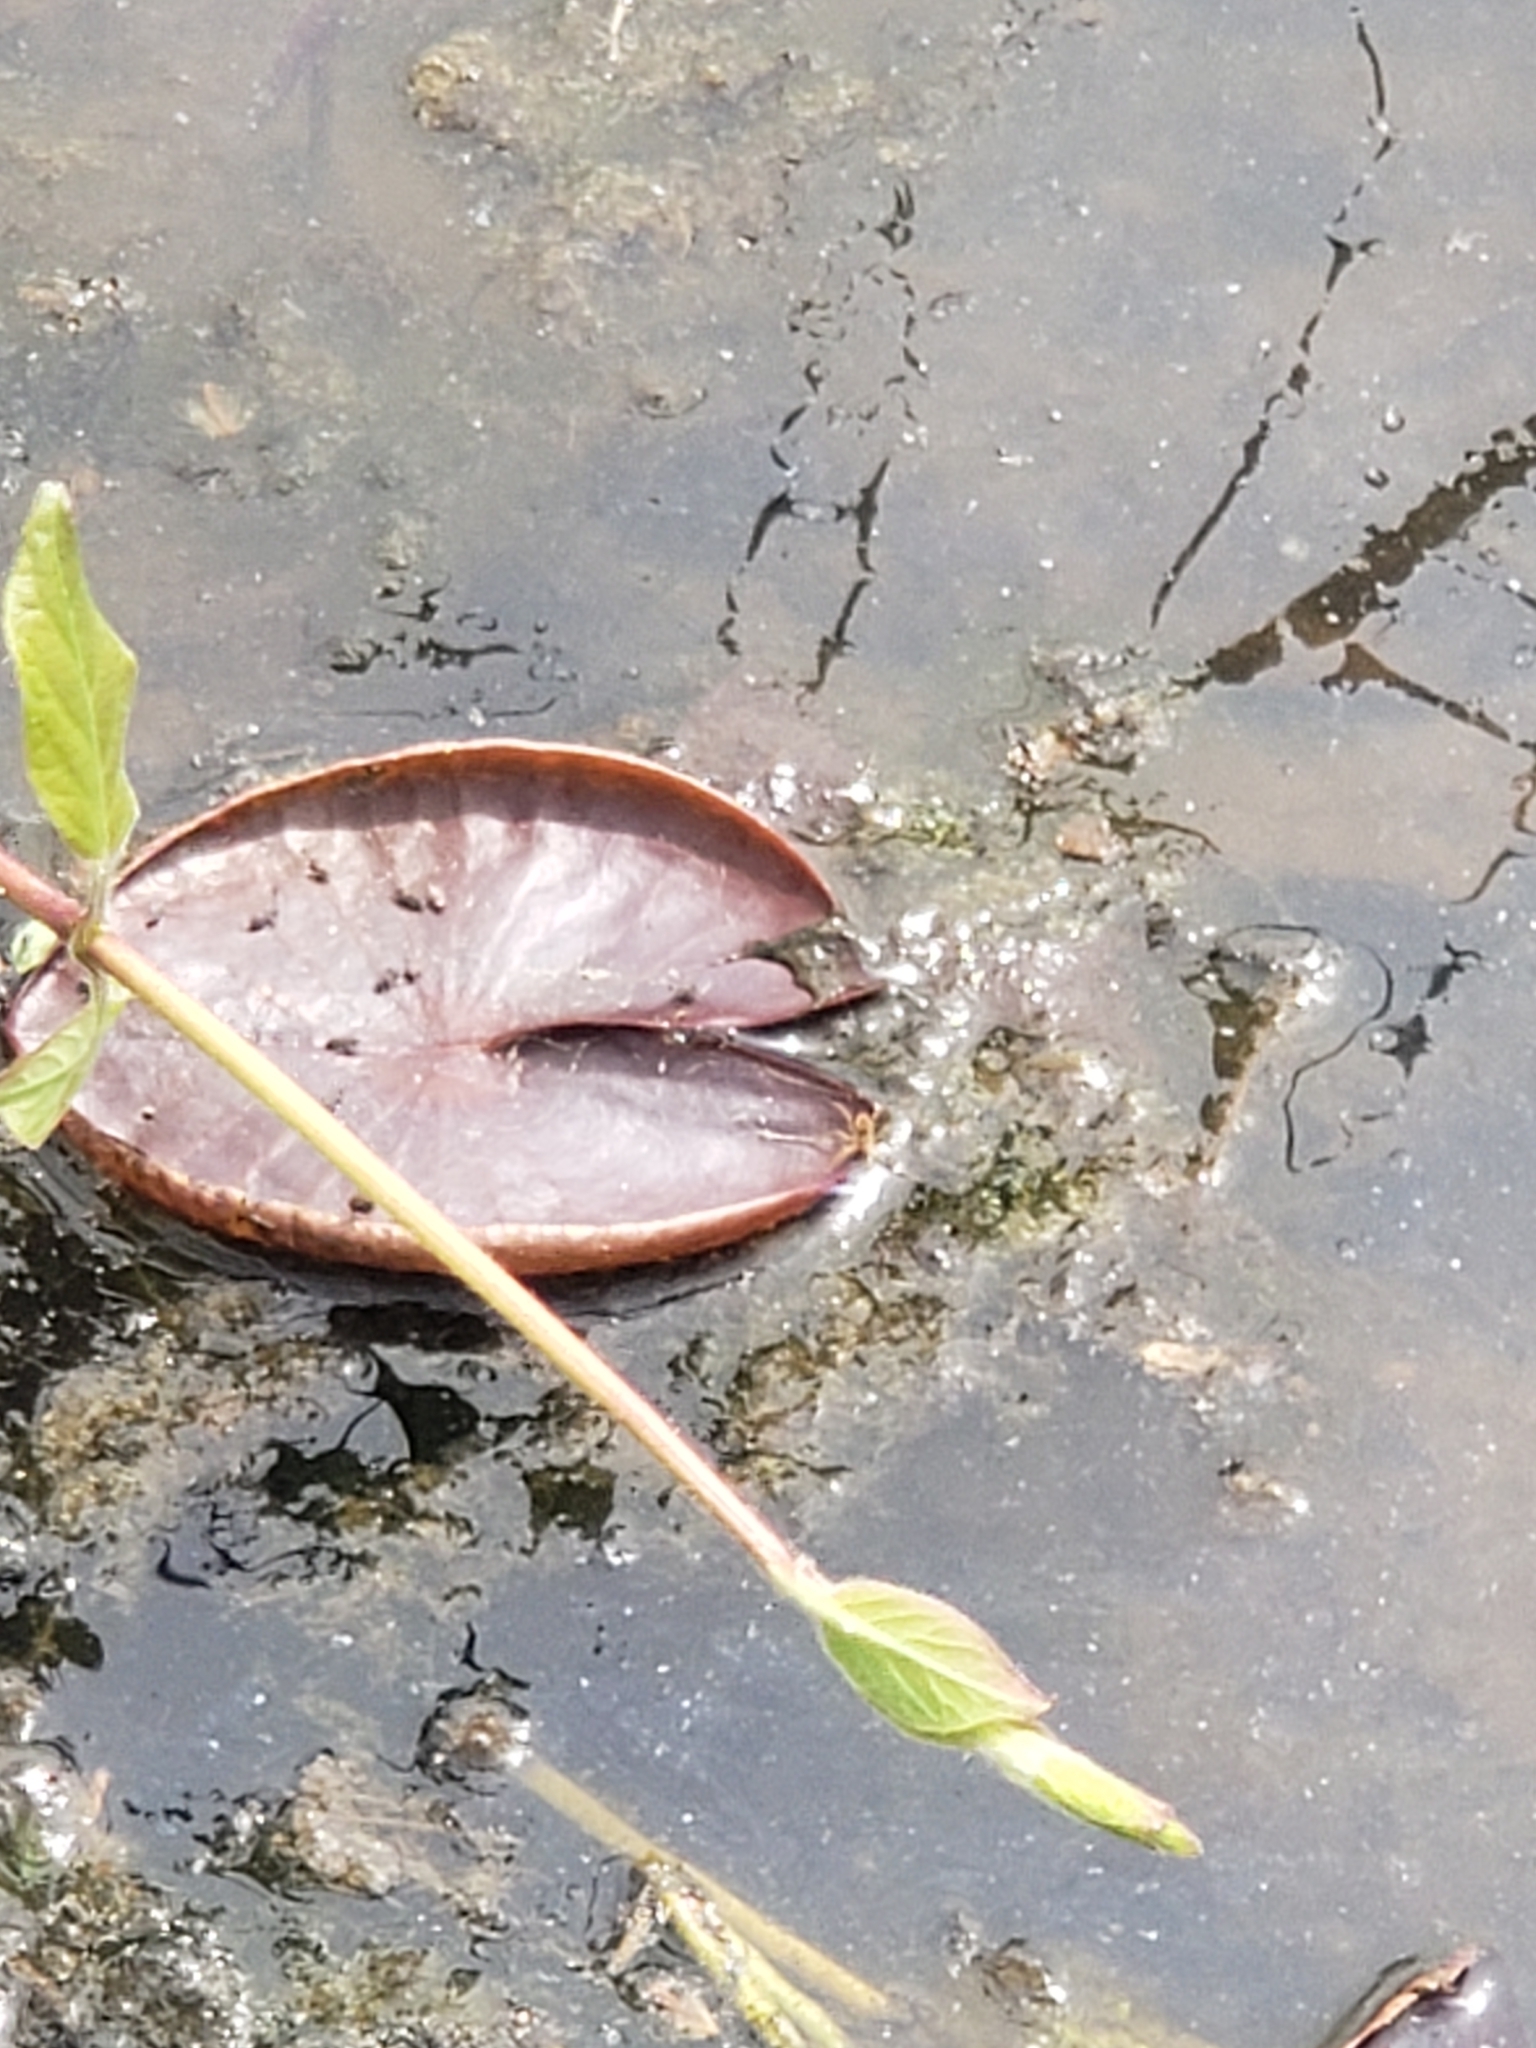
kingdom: Animalia
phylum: Arthropoda
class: Insecta
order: Hemiptera
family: Delphacidae
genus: Megamelus
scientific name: Megamelus davisi
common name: Planthopper
